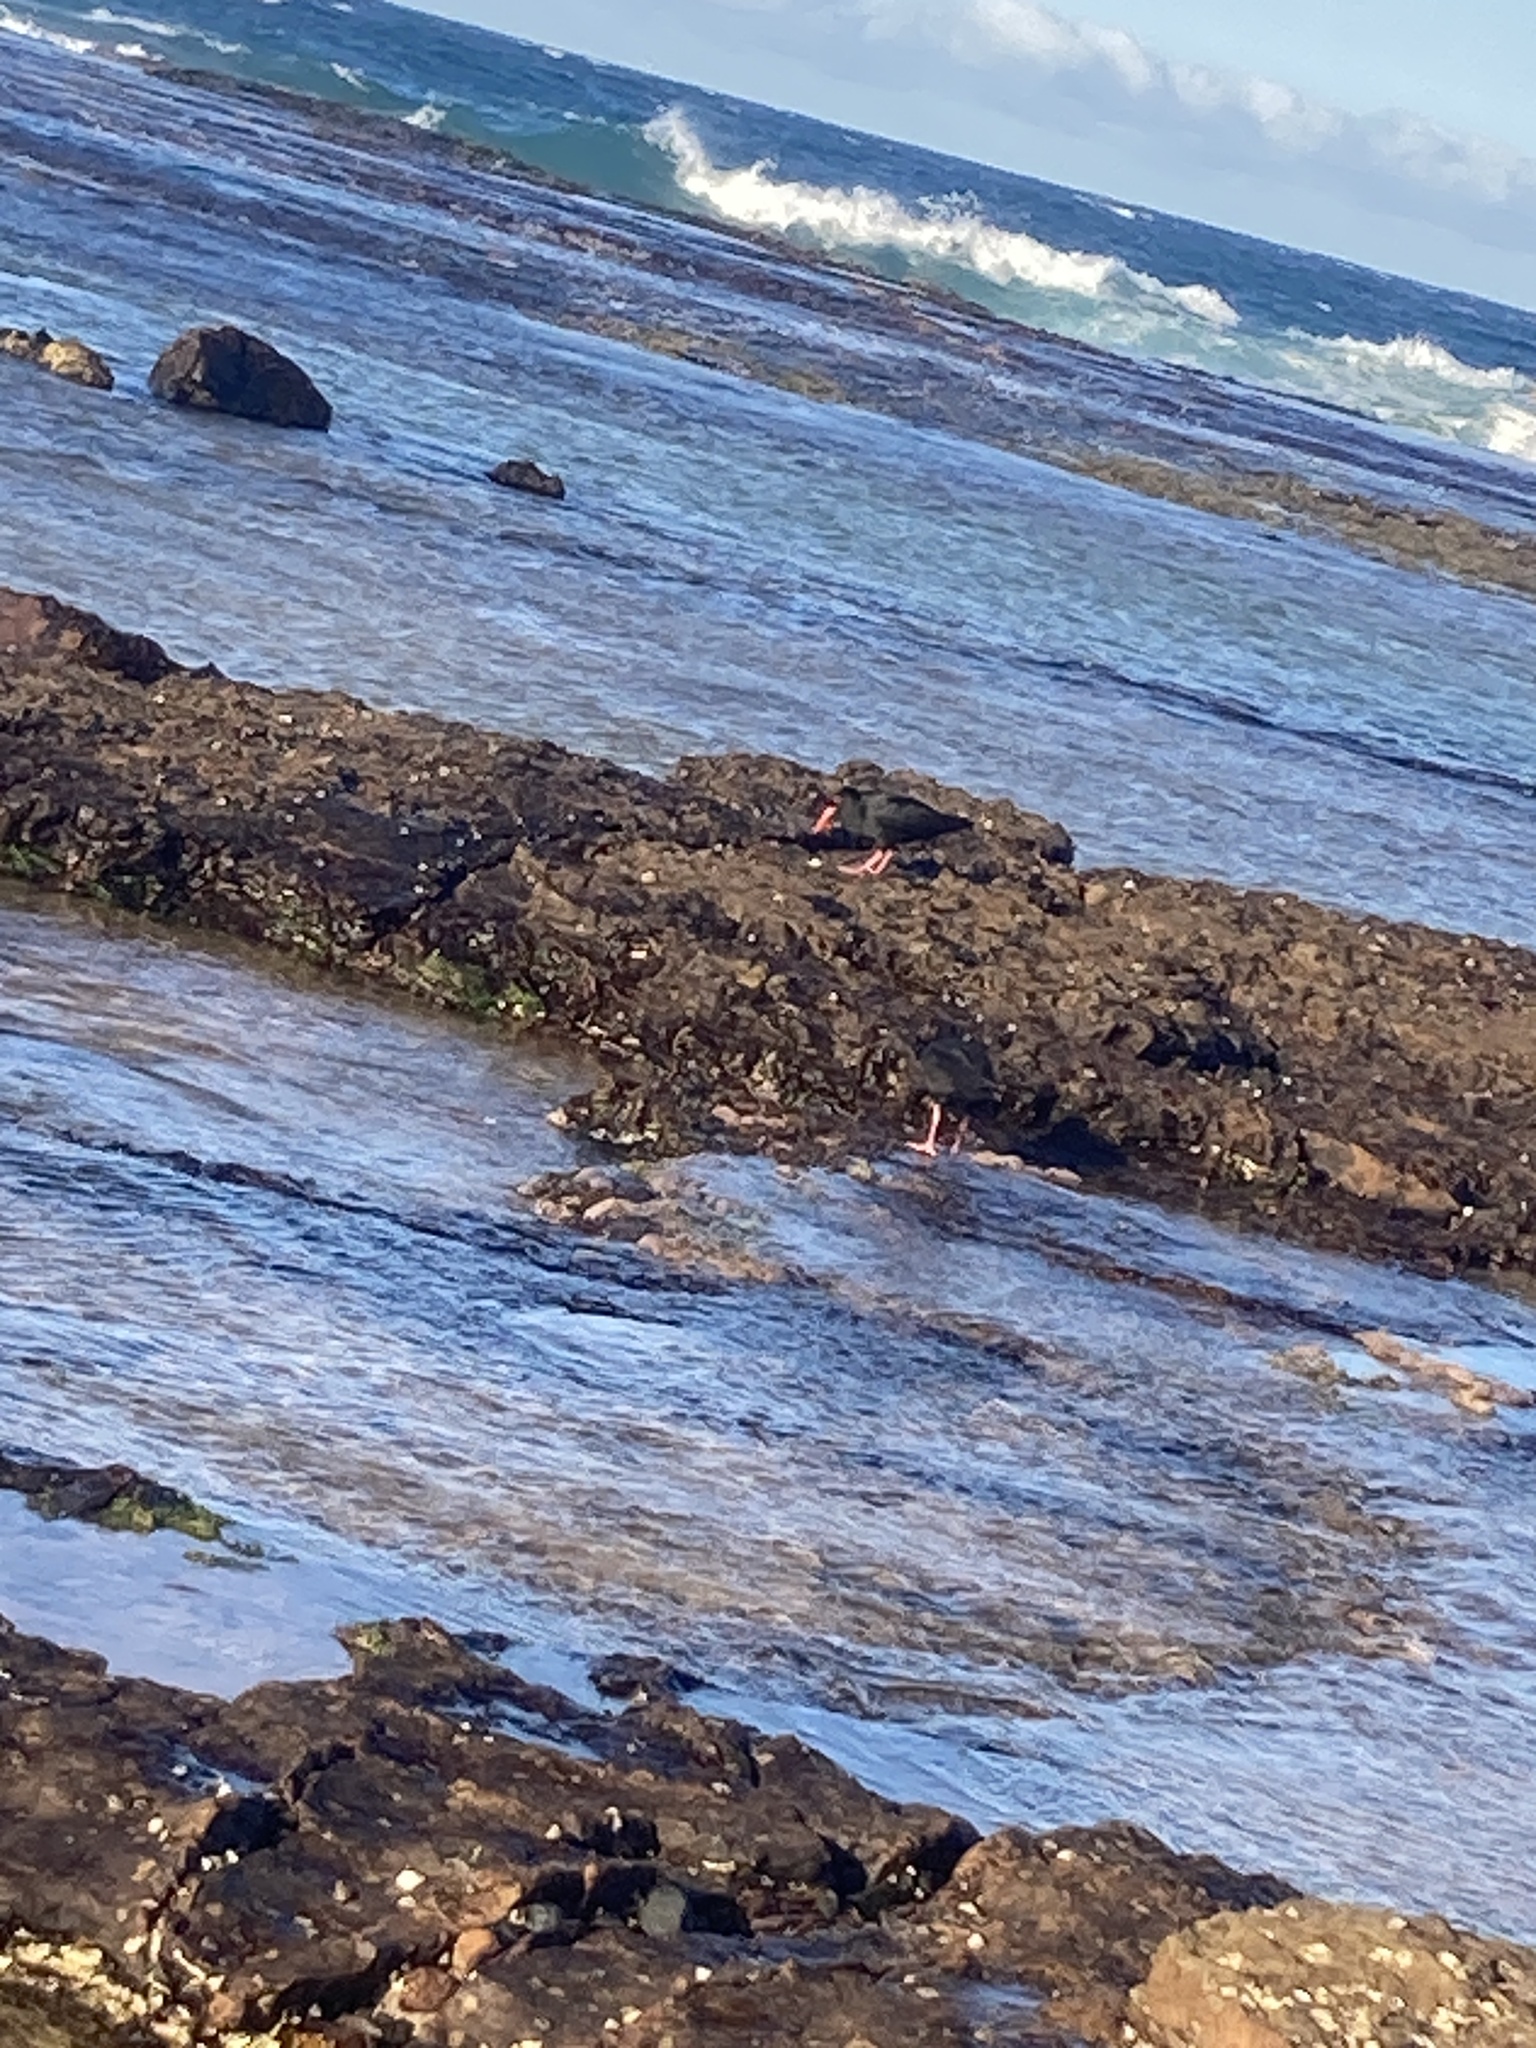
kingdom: Animalia
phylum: Chordata
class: Aves
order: Charadriiformes
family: Haematopodidae
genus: Haematopus
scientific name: Haematopus fuliginosus
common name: Sooty oystercatcher
